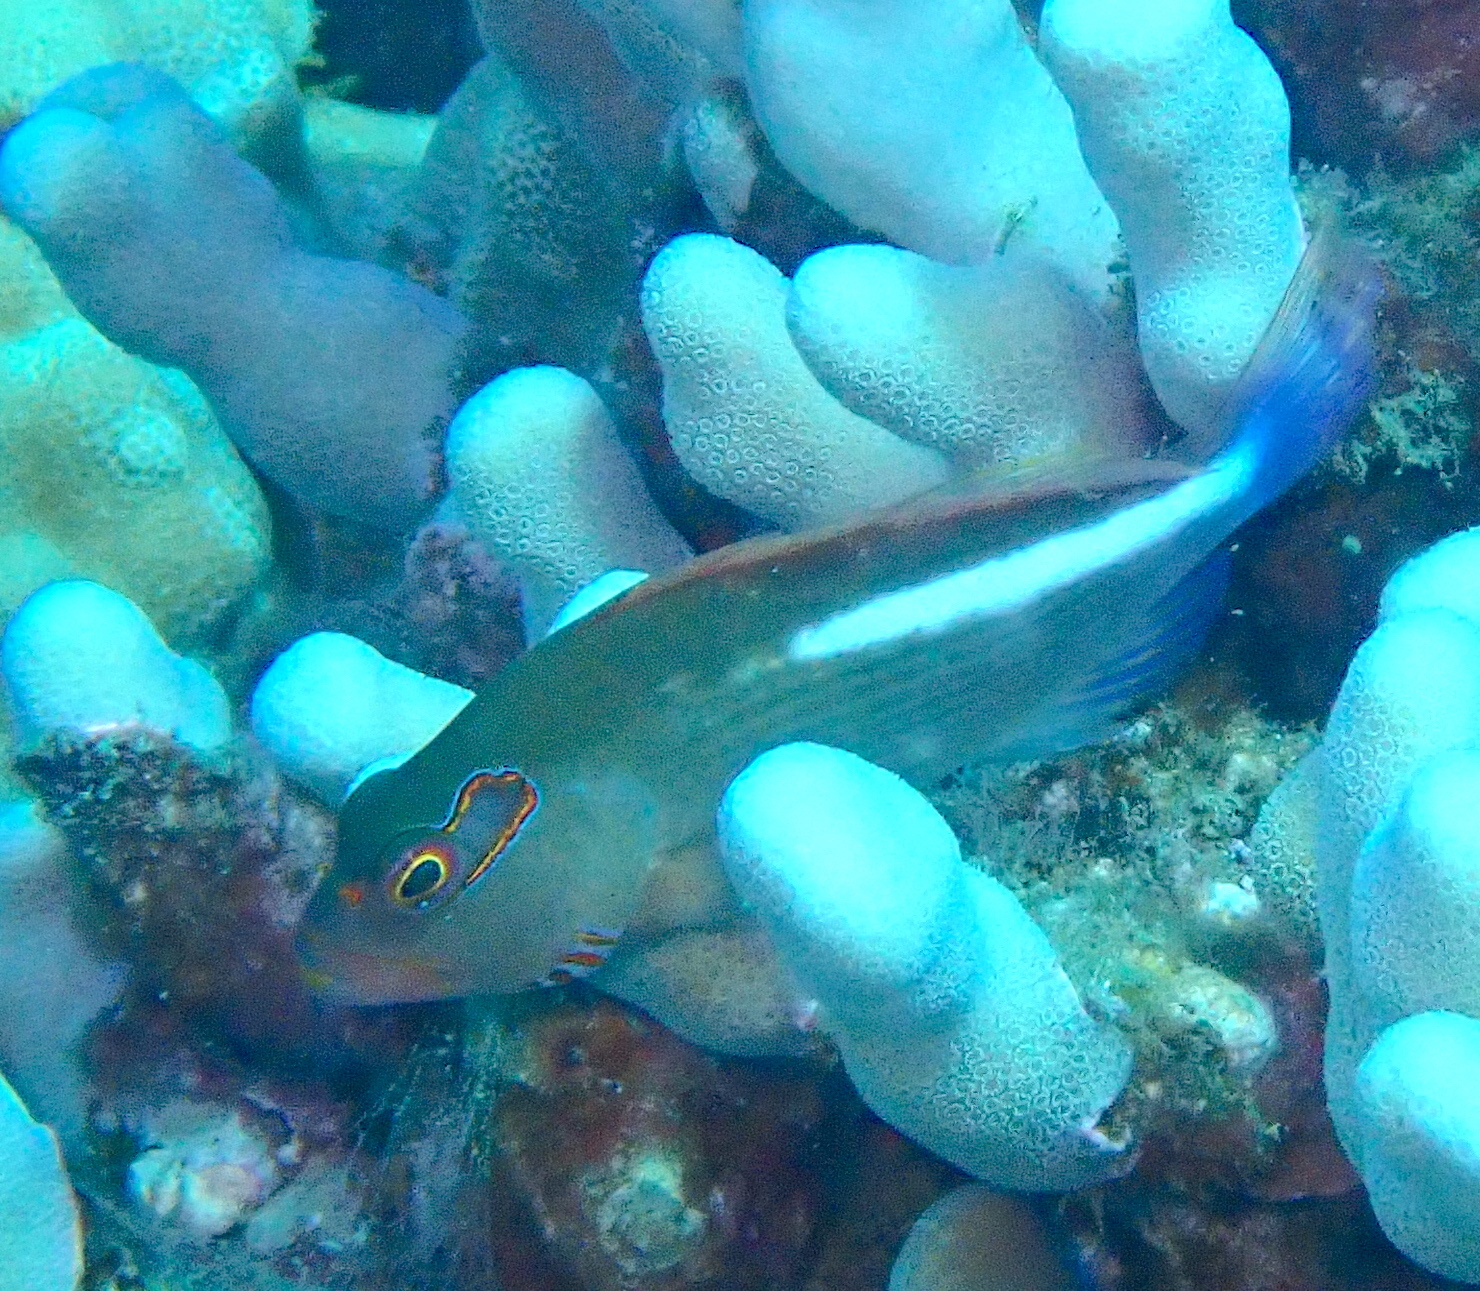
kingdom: Animalia
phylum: Chordata
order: Perciformes
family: Cirrhitidae
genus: Paracirrhites
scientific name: Paracirrhites arcatus
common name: Arc-eye hawkfish
